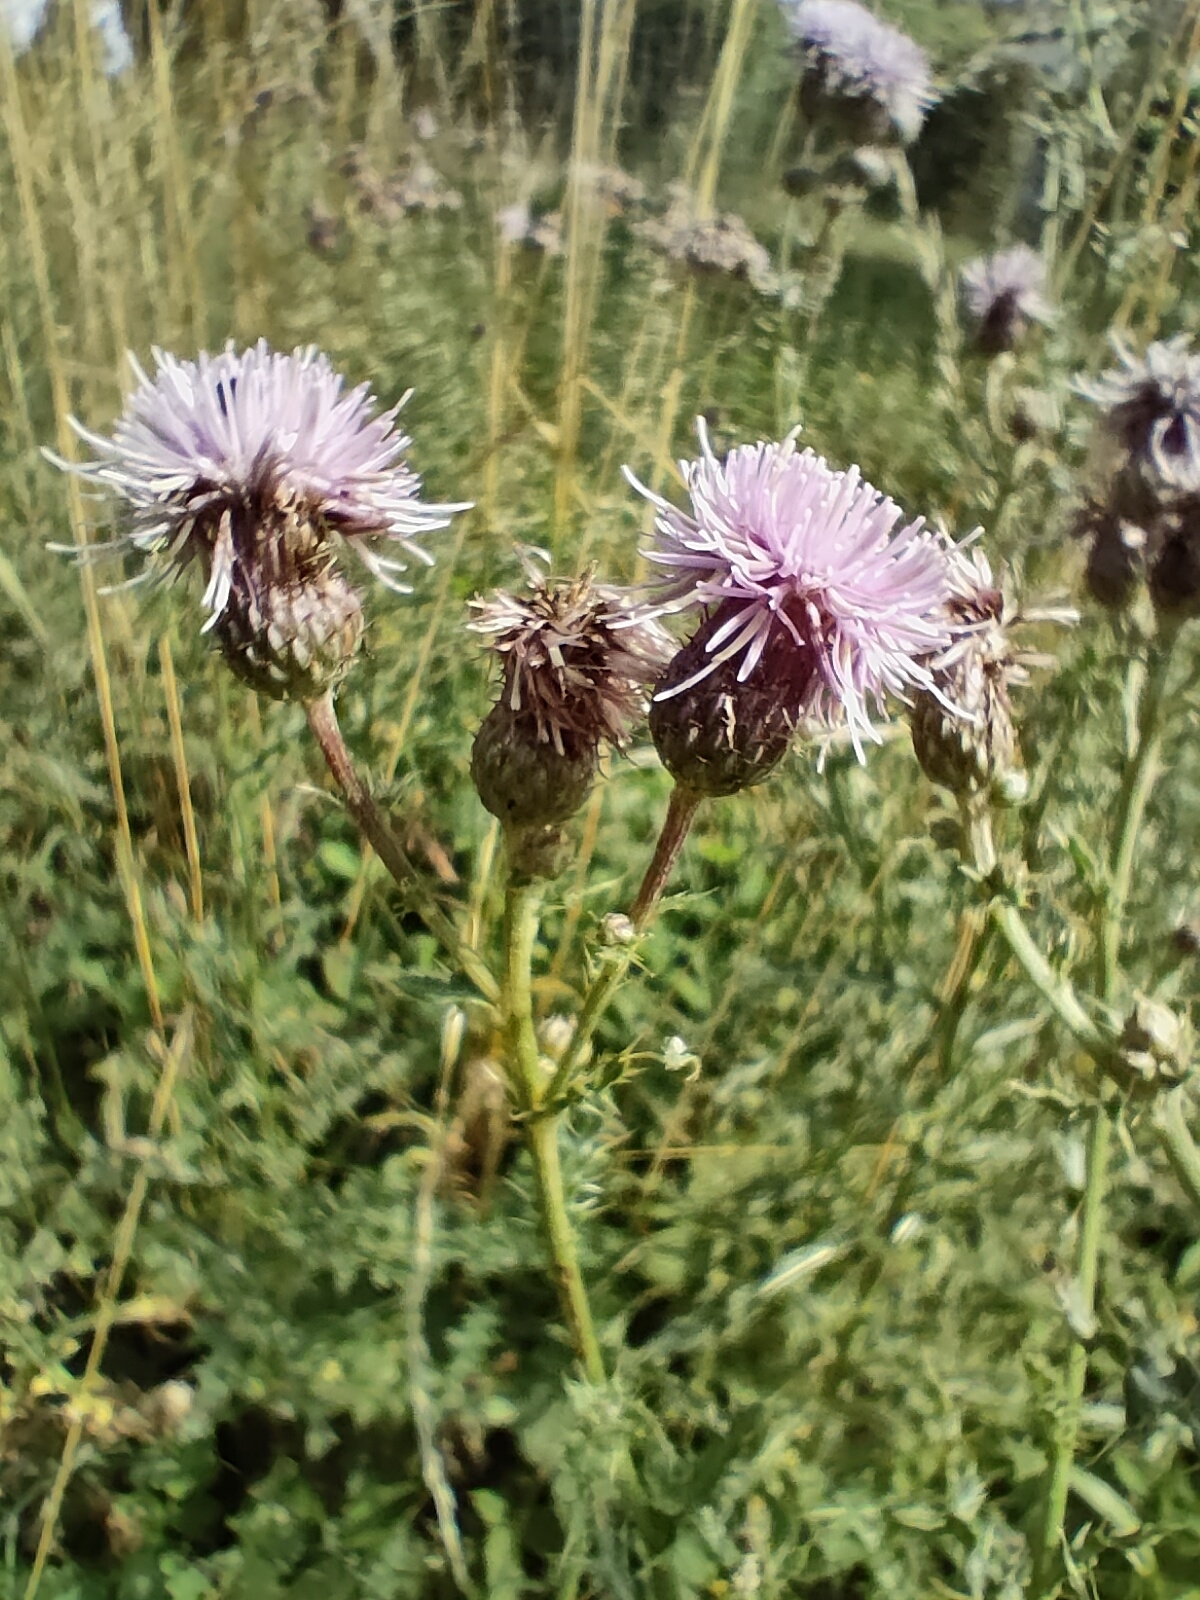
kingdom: Plantae
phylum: Tracheophyta
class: Magnoliopsida
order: Asterales
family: Asteraceae
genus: Cirsium
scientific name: Cirsium arvense
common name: Creeping thistle
